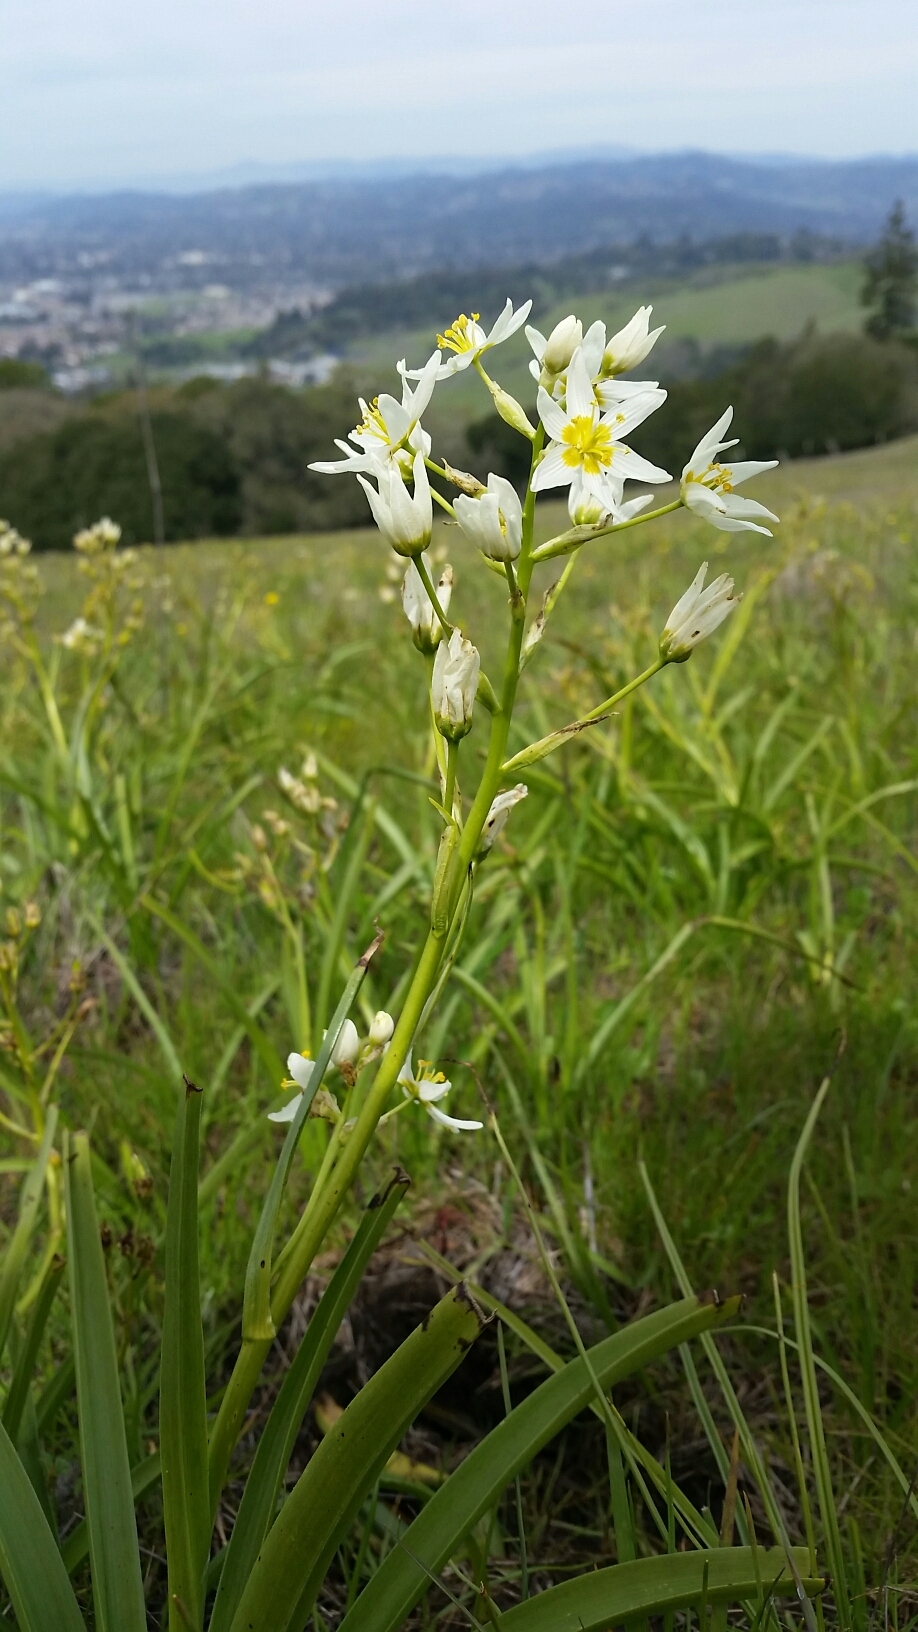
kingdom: Plantae
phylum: Tracheophyta
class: Liliopsida
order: Liliales
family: Melanthiaceae
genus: Toxicoscordion
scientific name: Toxicoscordion fremontii
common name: Fremont's death camas
